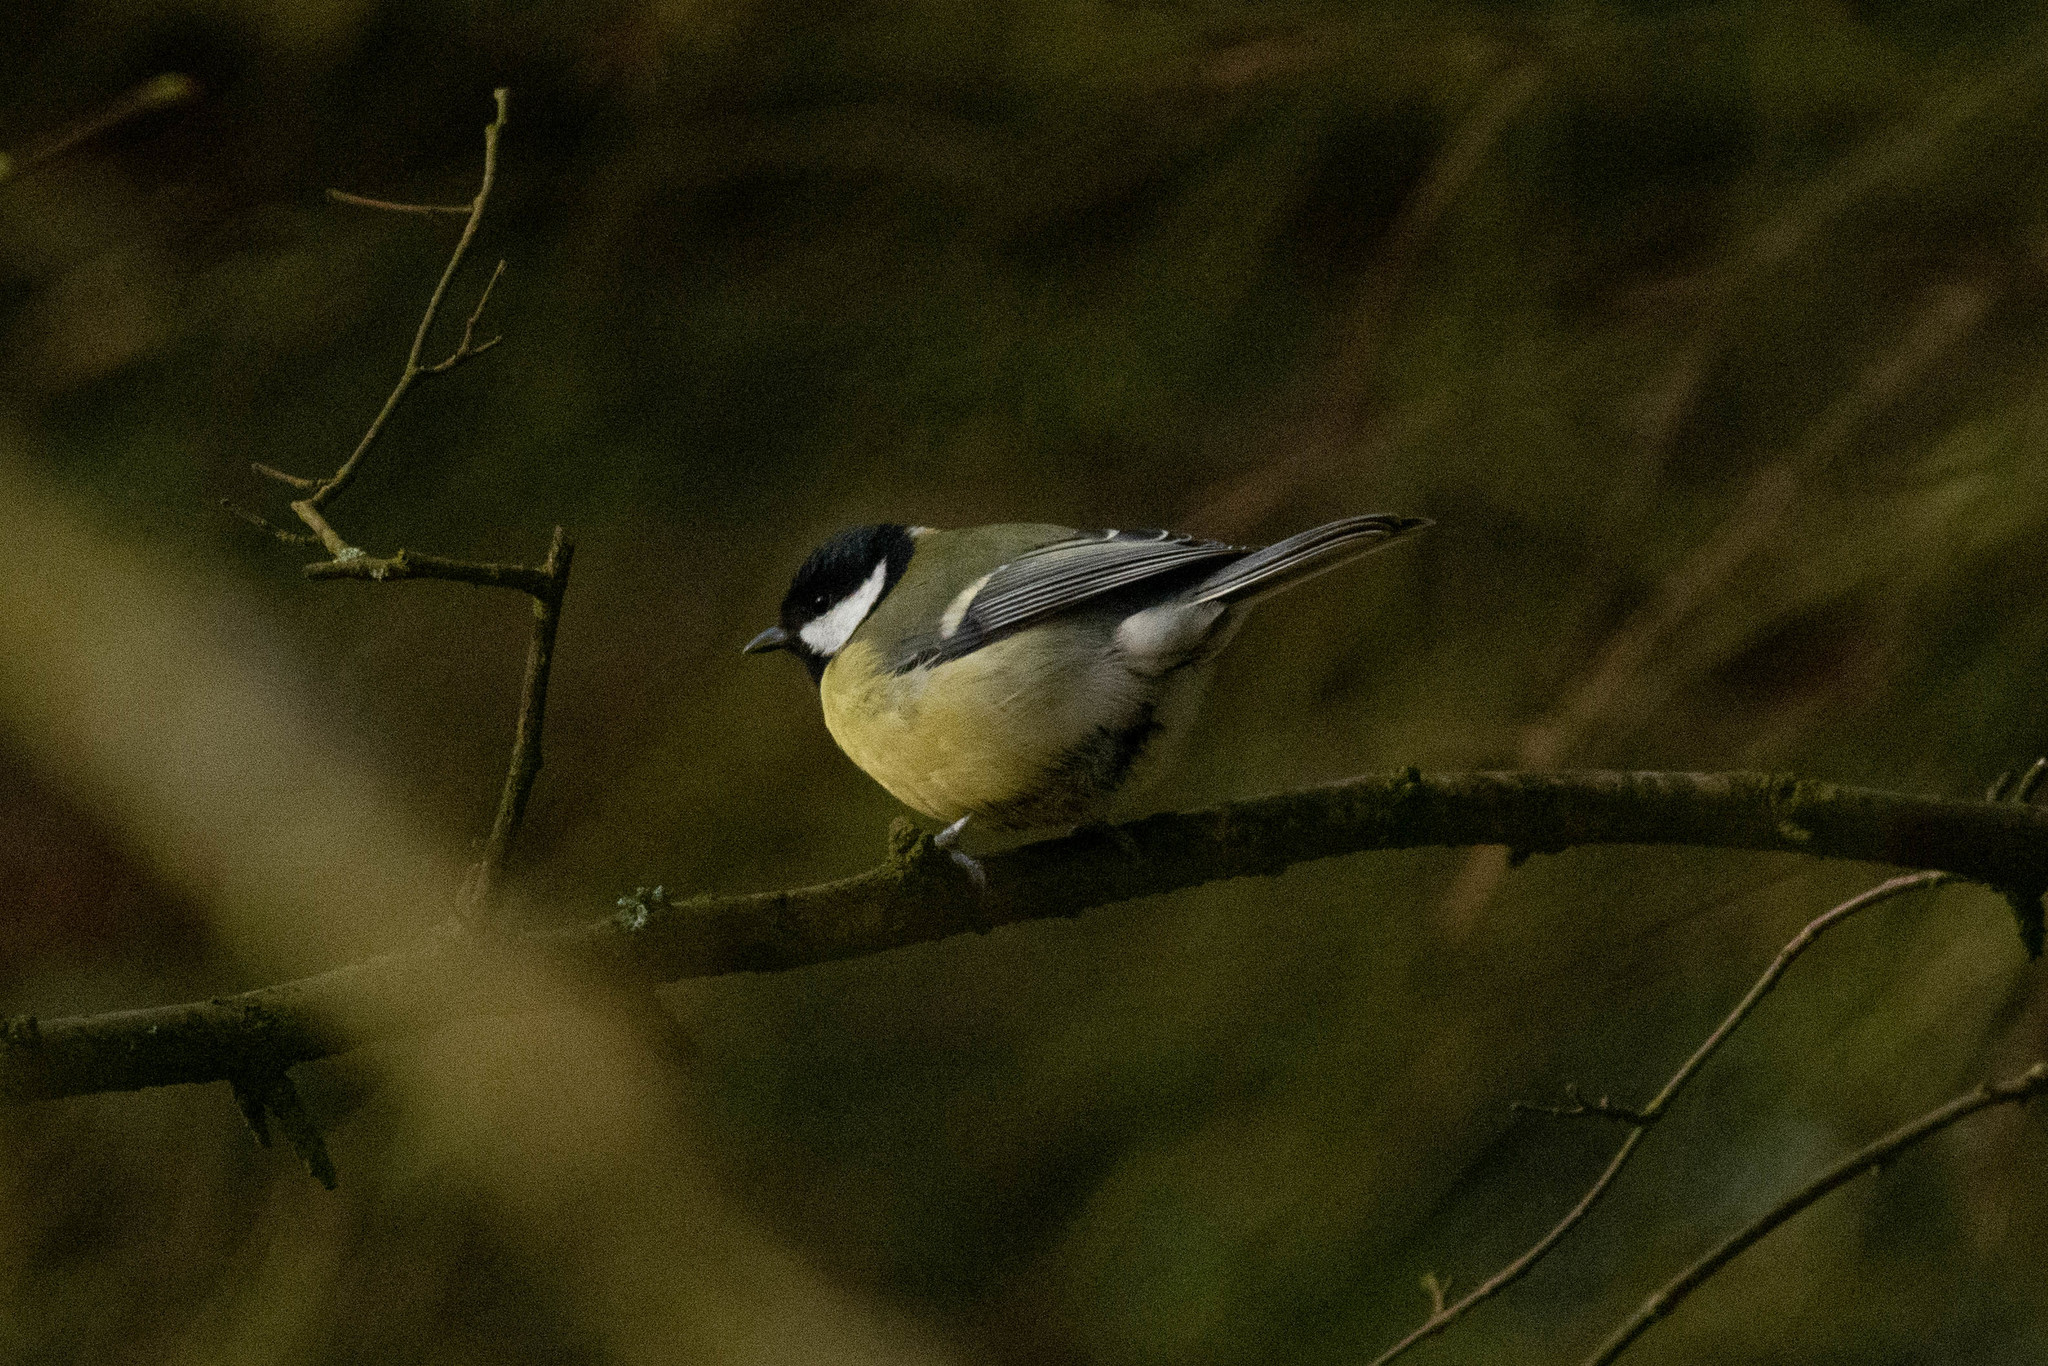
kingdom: Animalia
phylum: Chordata
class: Aves
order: Passeriformes
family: Paridae
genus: Parus
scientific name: Parus major
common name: Great tit
